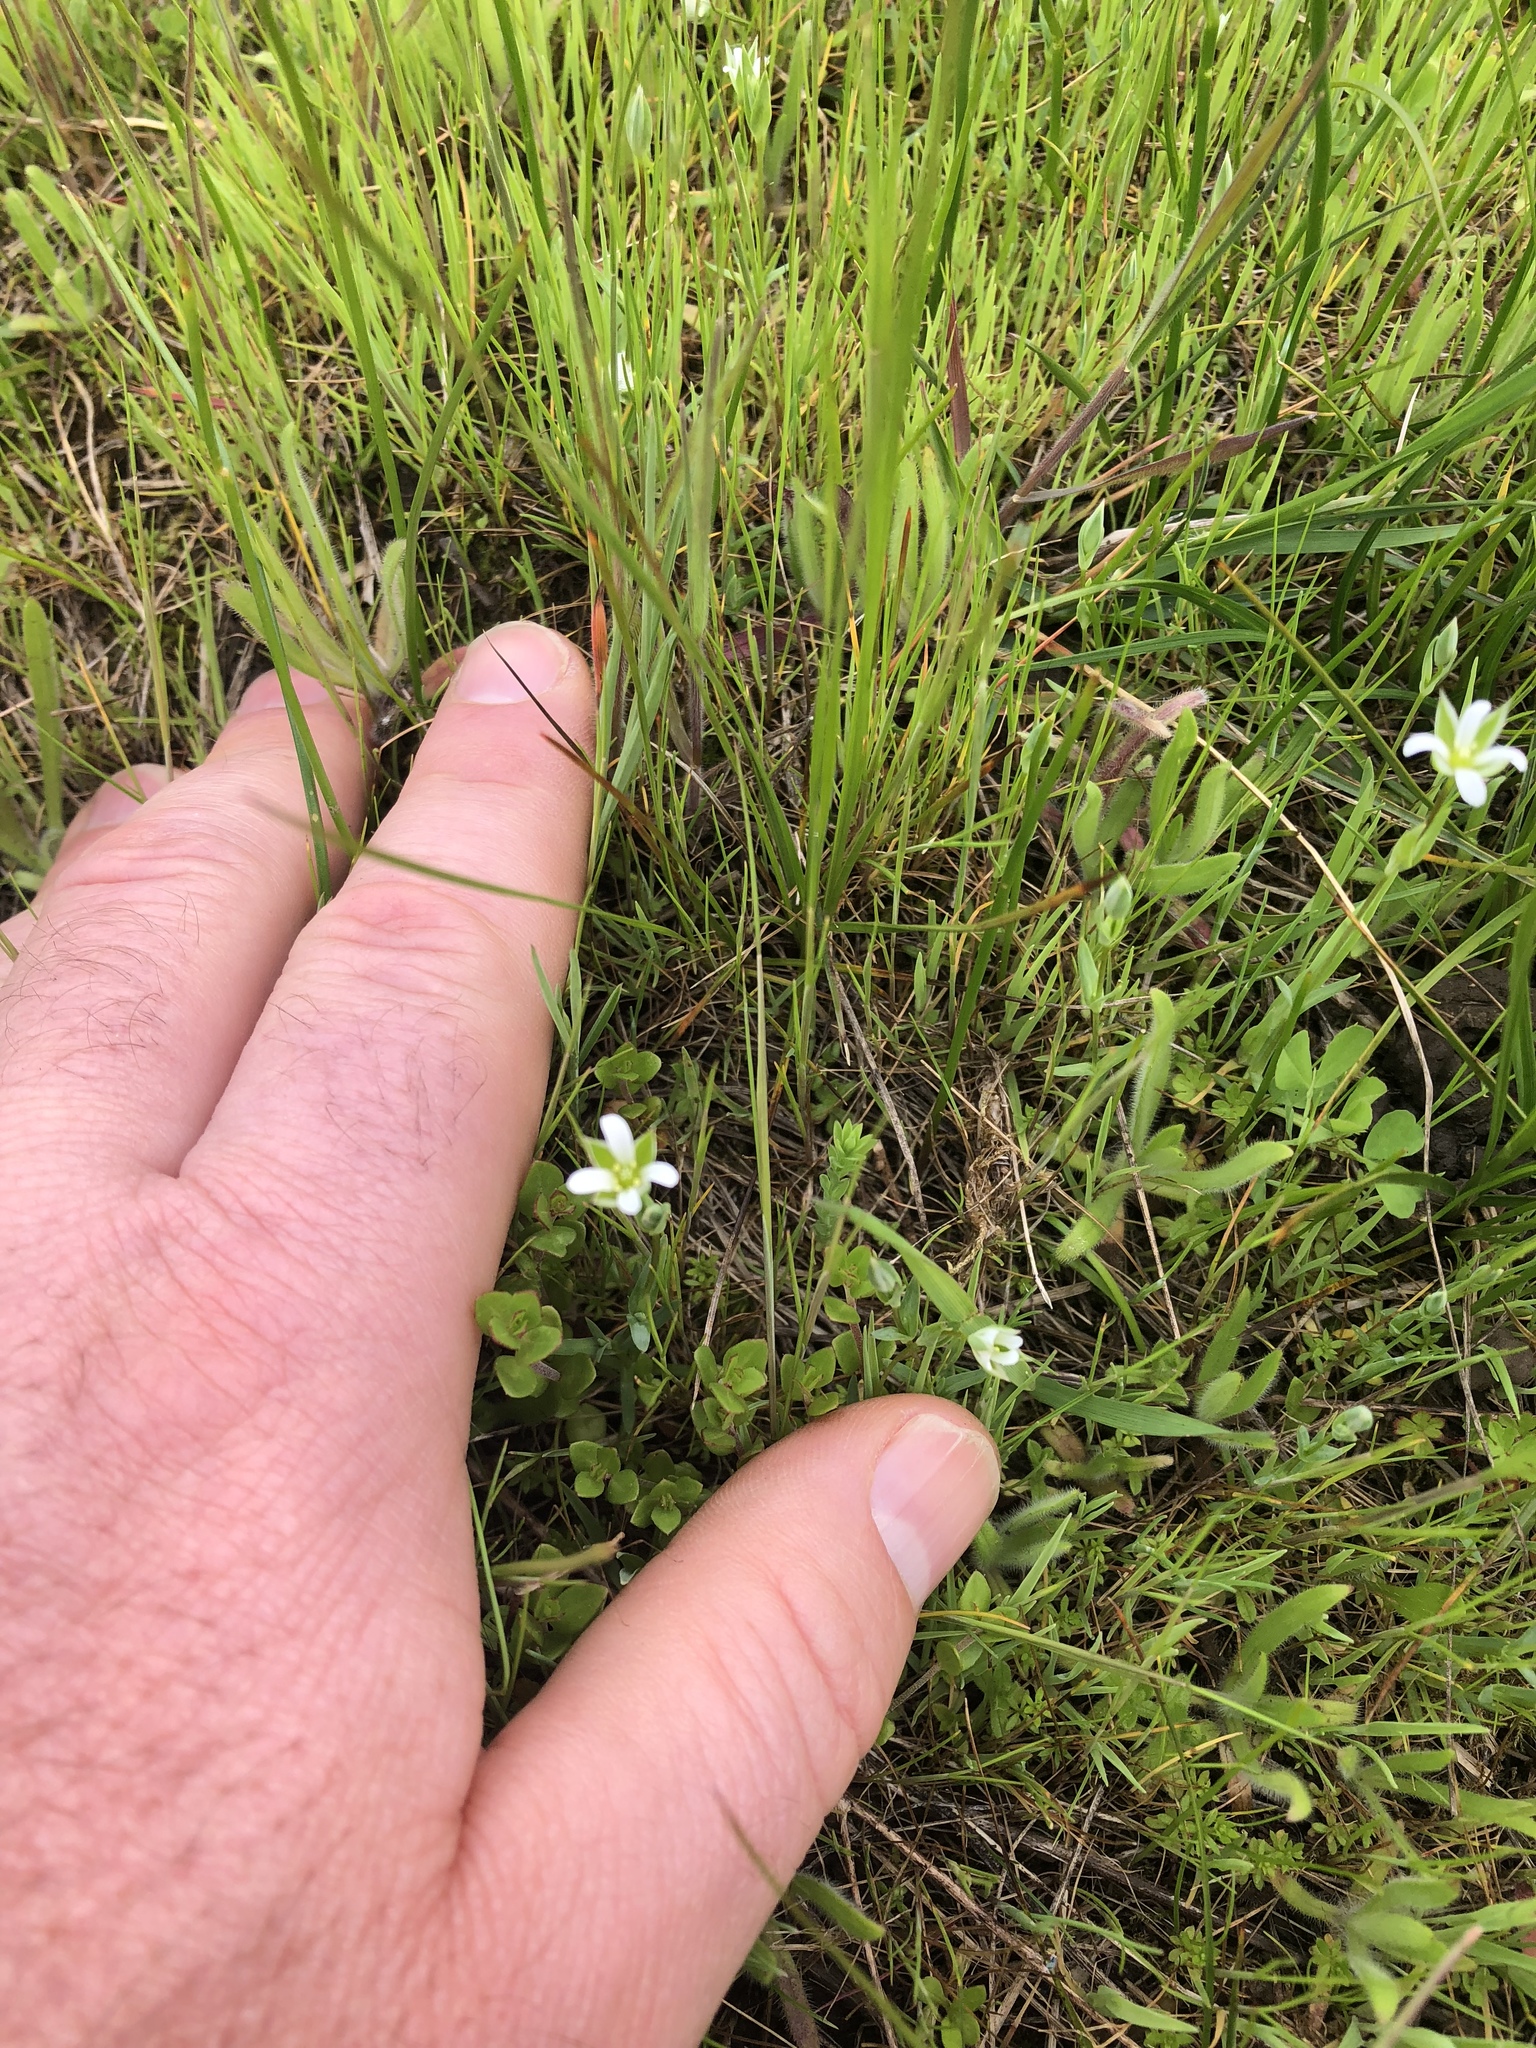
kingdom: Plantae
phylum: Tracheophyta
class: Magnoliopsida
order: Caryophyllales
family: Caryophyllaceae
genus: Moenchia
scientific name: Moenchia erecta
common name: Upright chickweed
